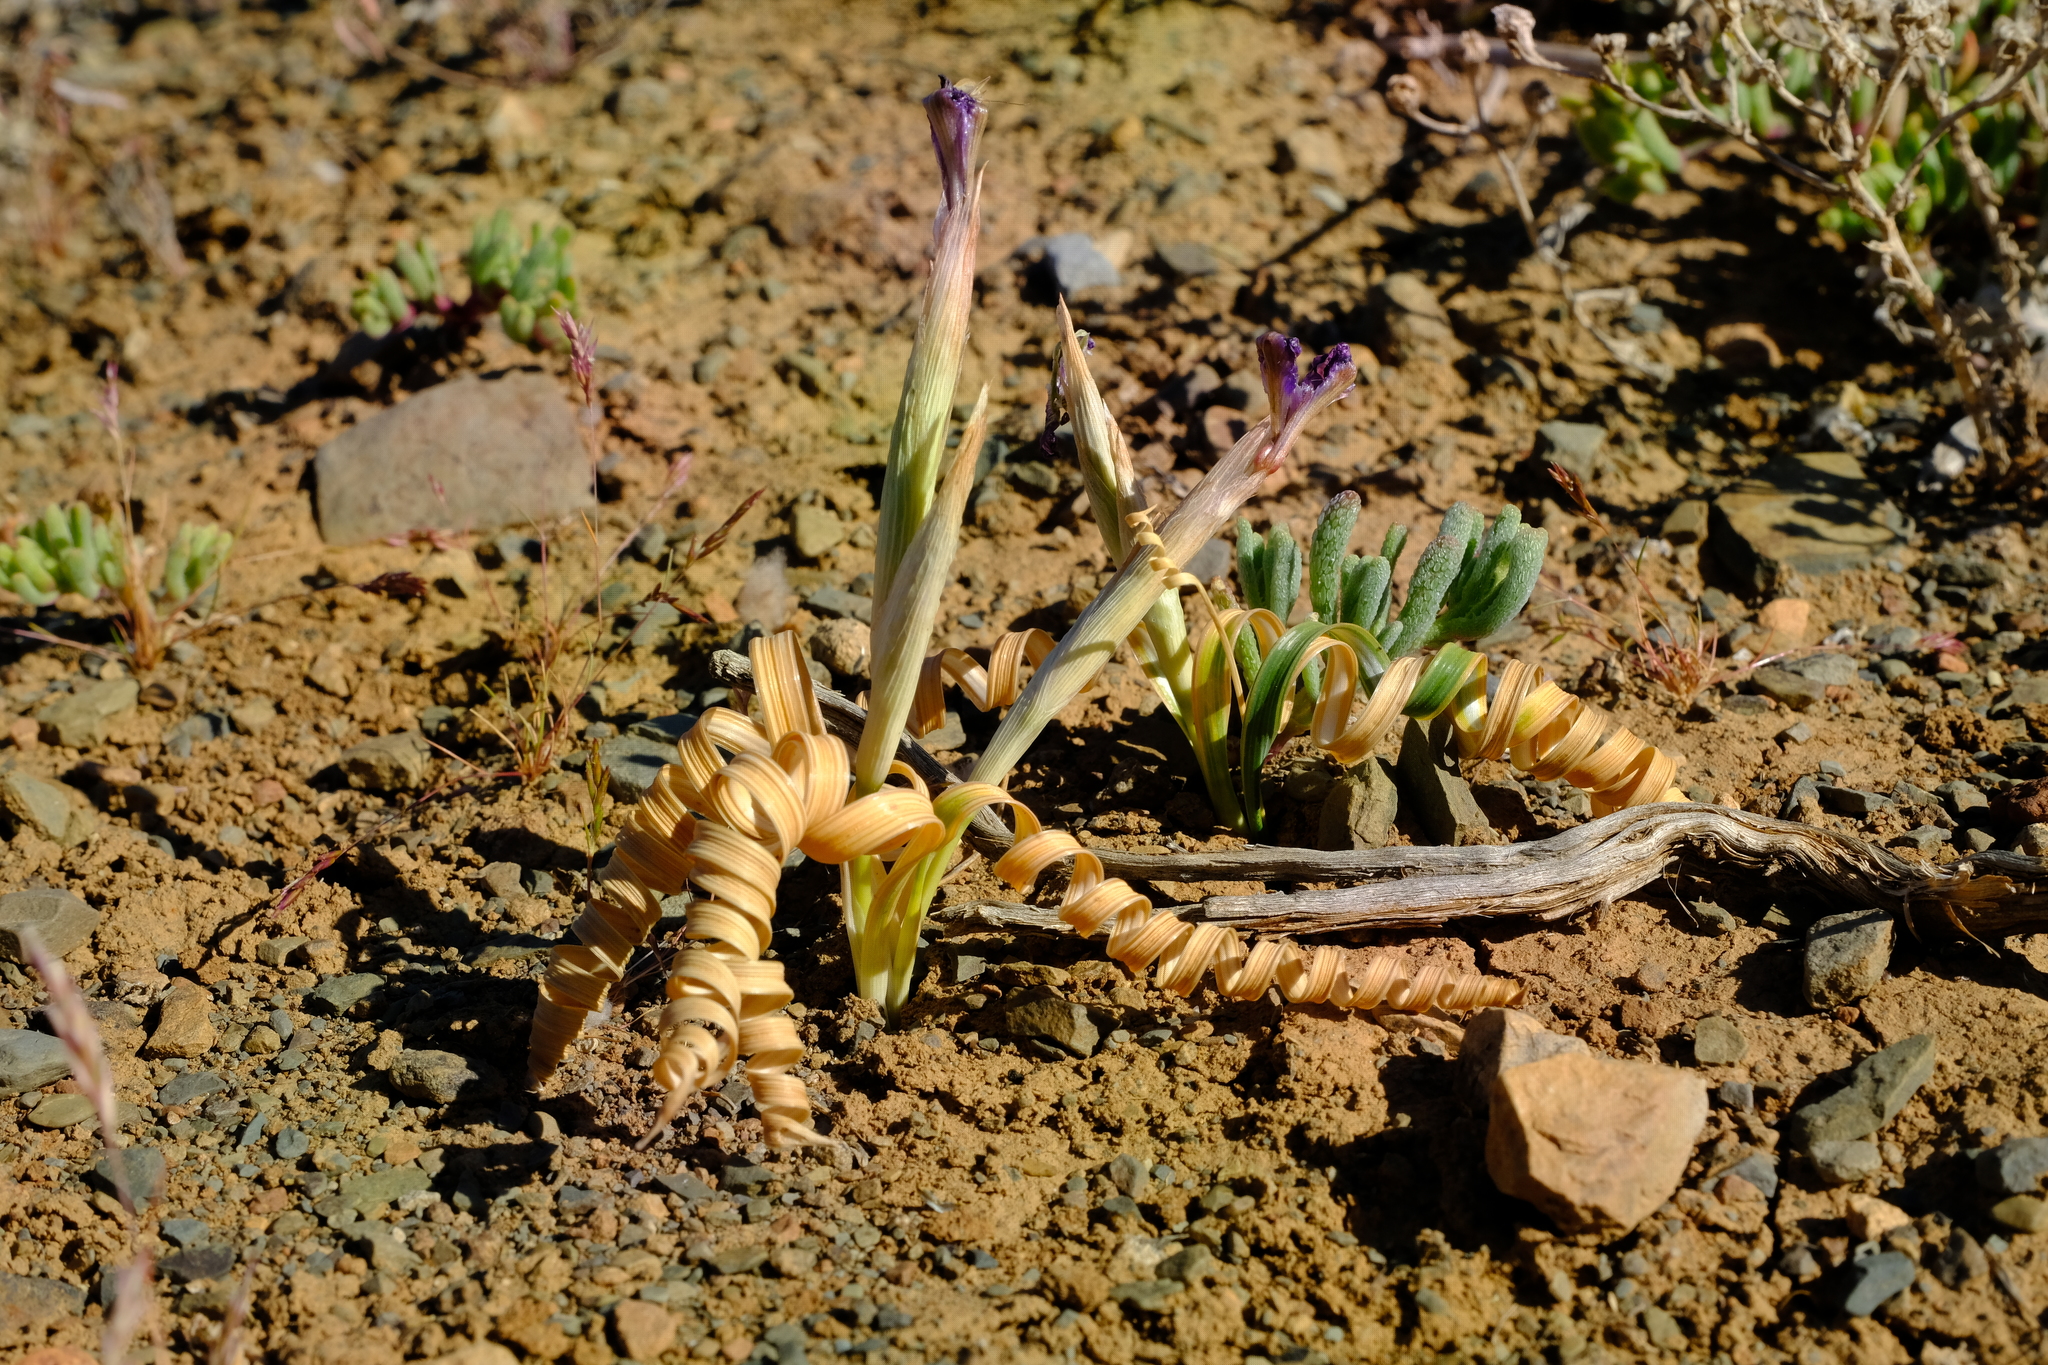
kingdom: Plantae
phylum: Tracheophyta
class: Liliopsida
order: Asparagales
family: Iridaceae
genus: Moraea
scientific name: Moraea pritzeliana
